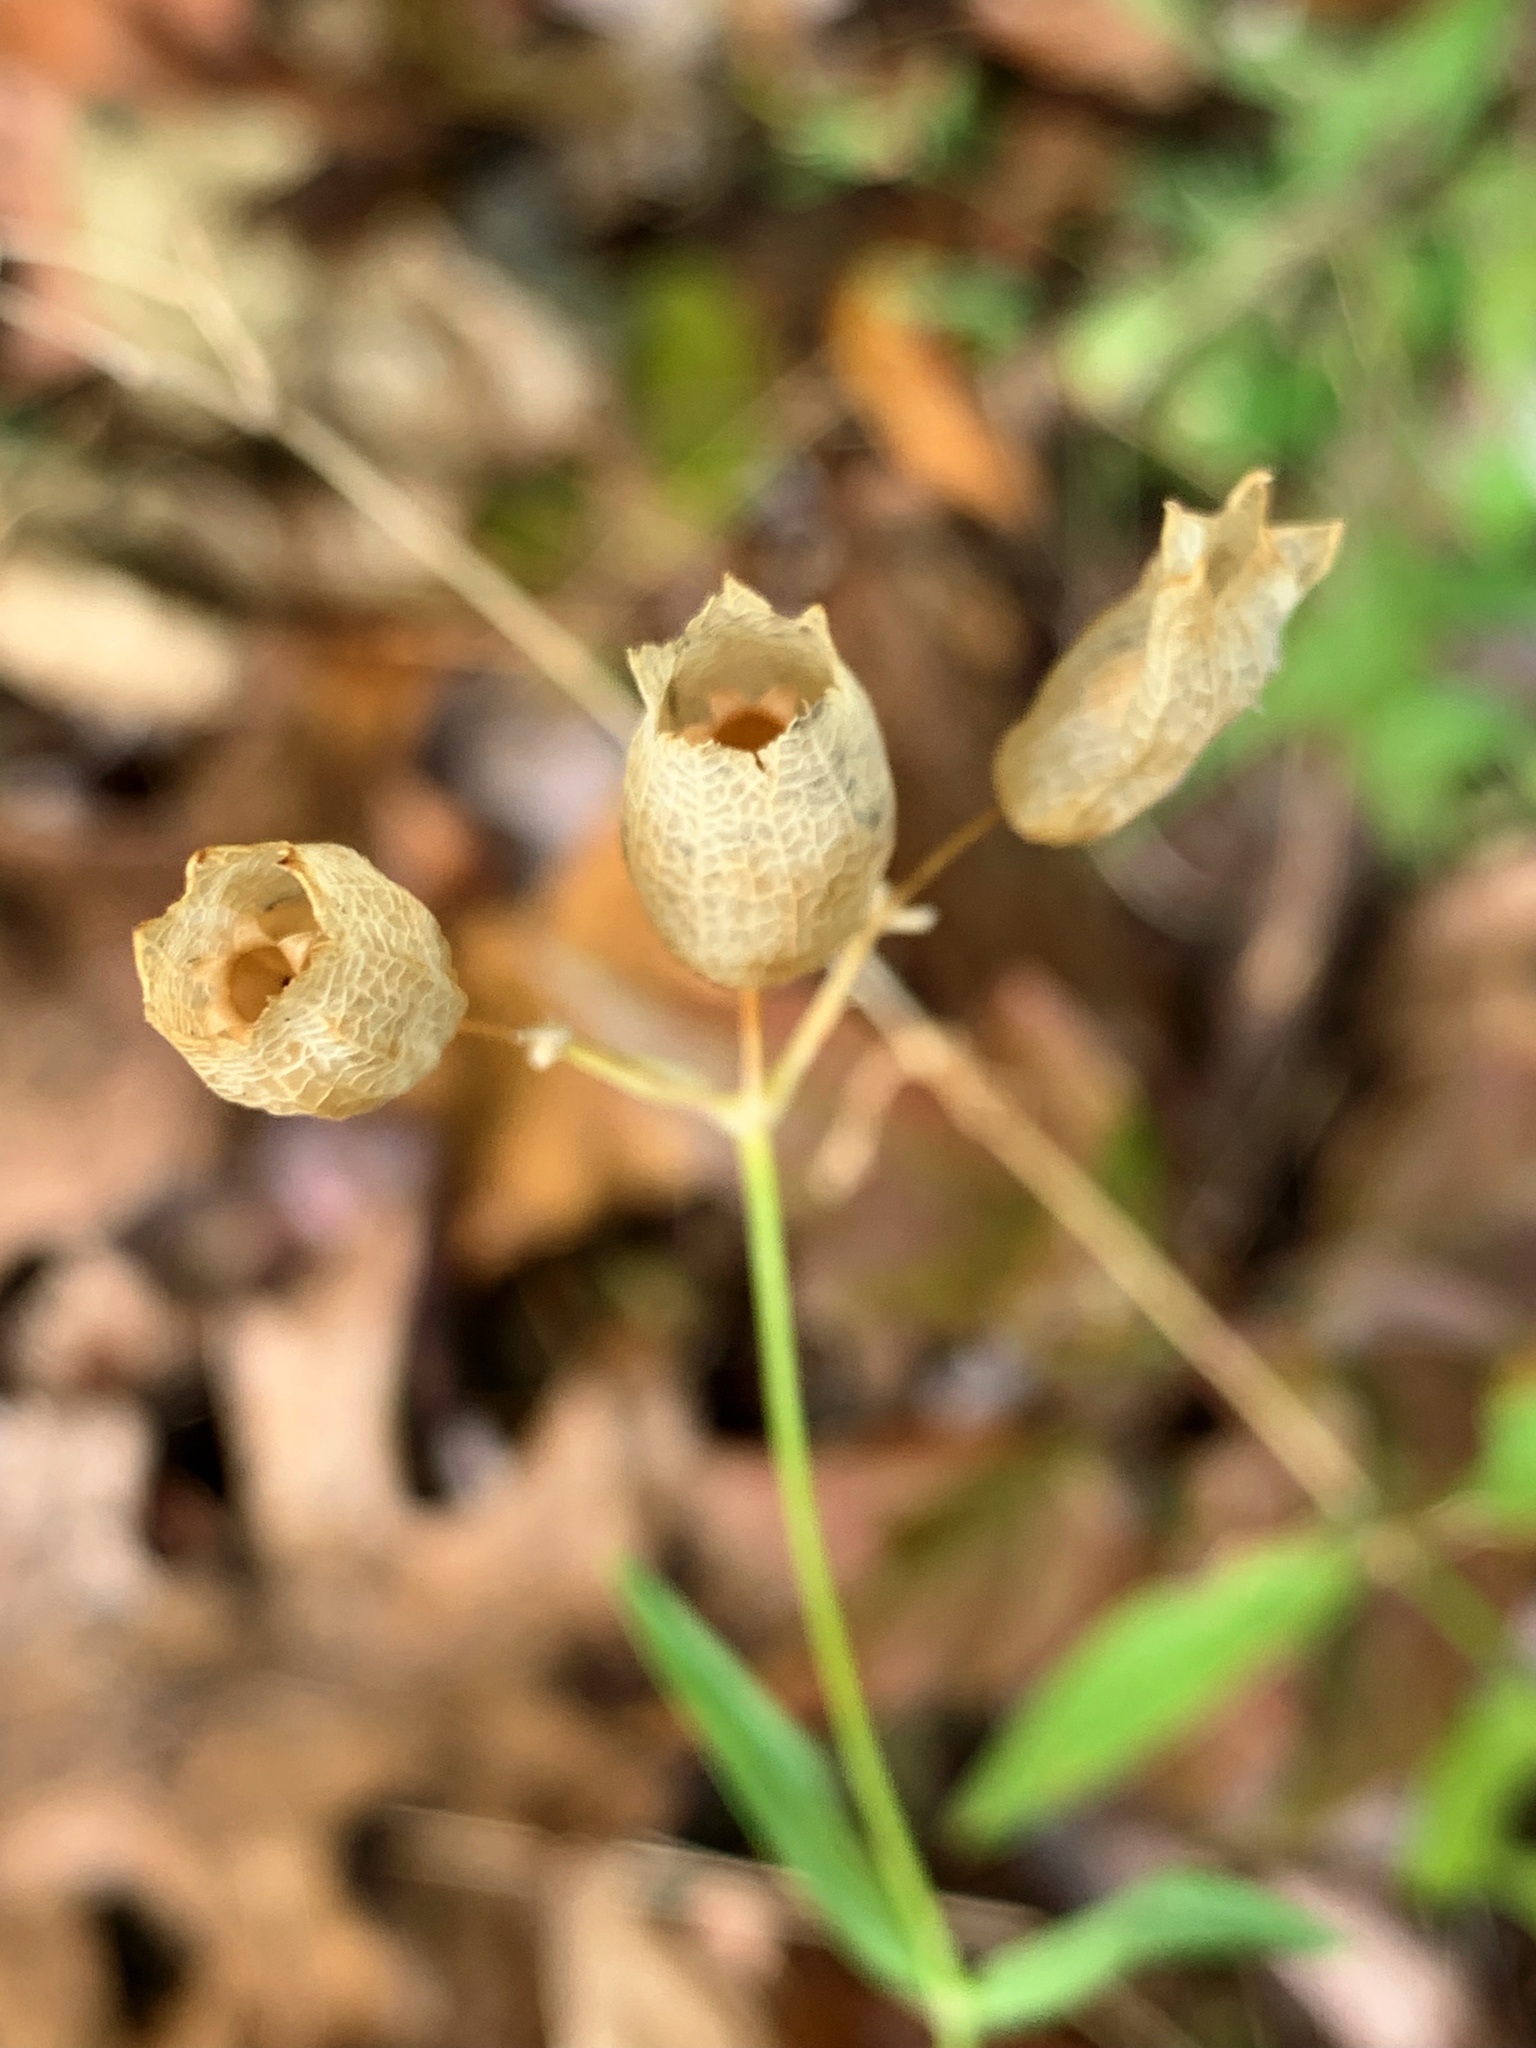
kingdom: Plantae
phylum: Tracheophyta
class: Magnoliopsida
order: Caryophyllales
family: Caryophyllaceae
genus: Silene
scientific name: Silene vulgaris
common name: Bladder campion
